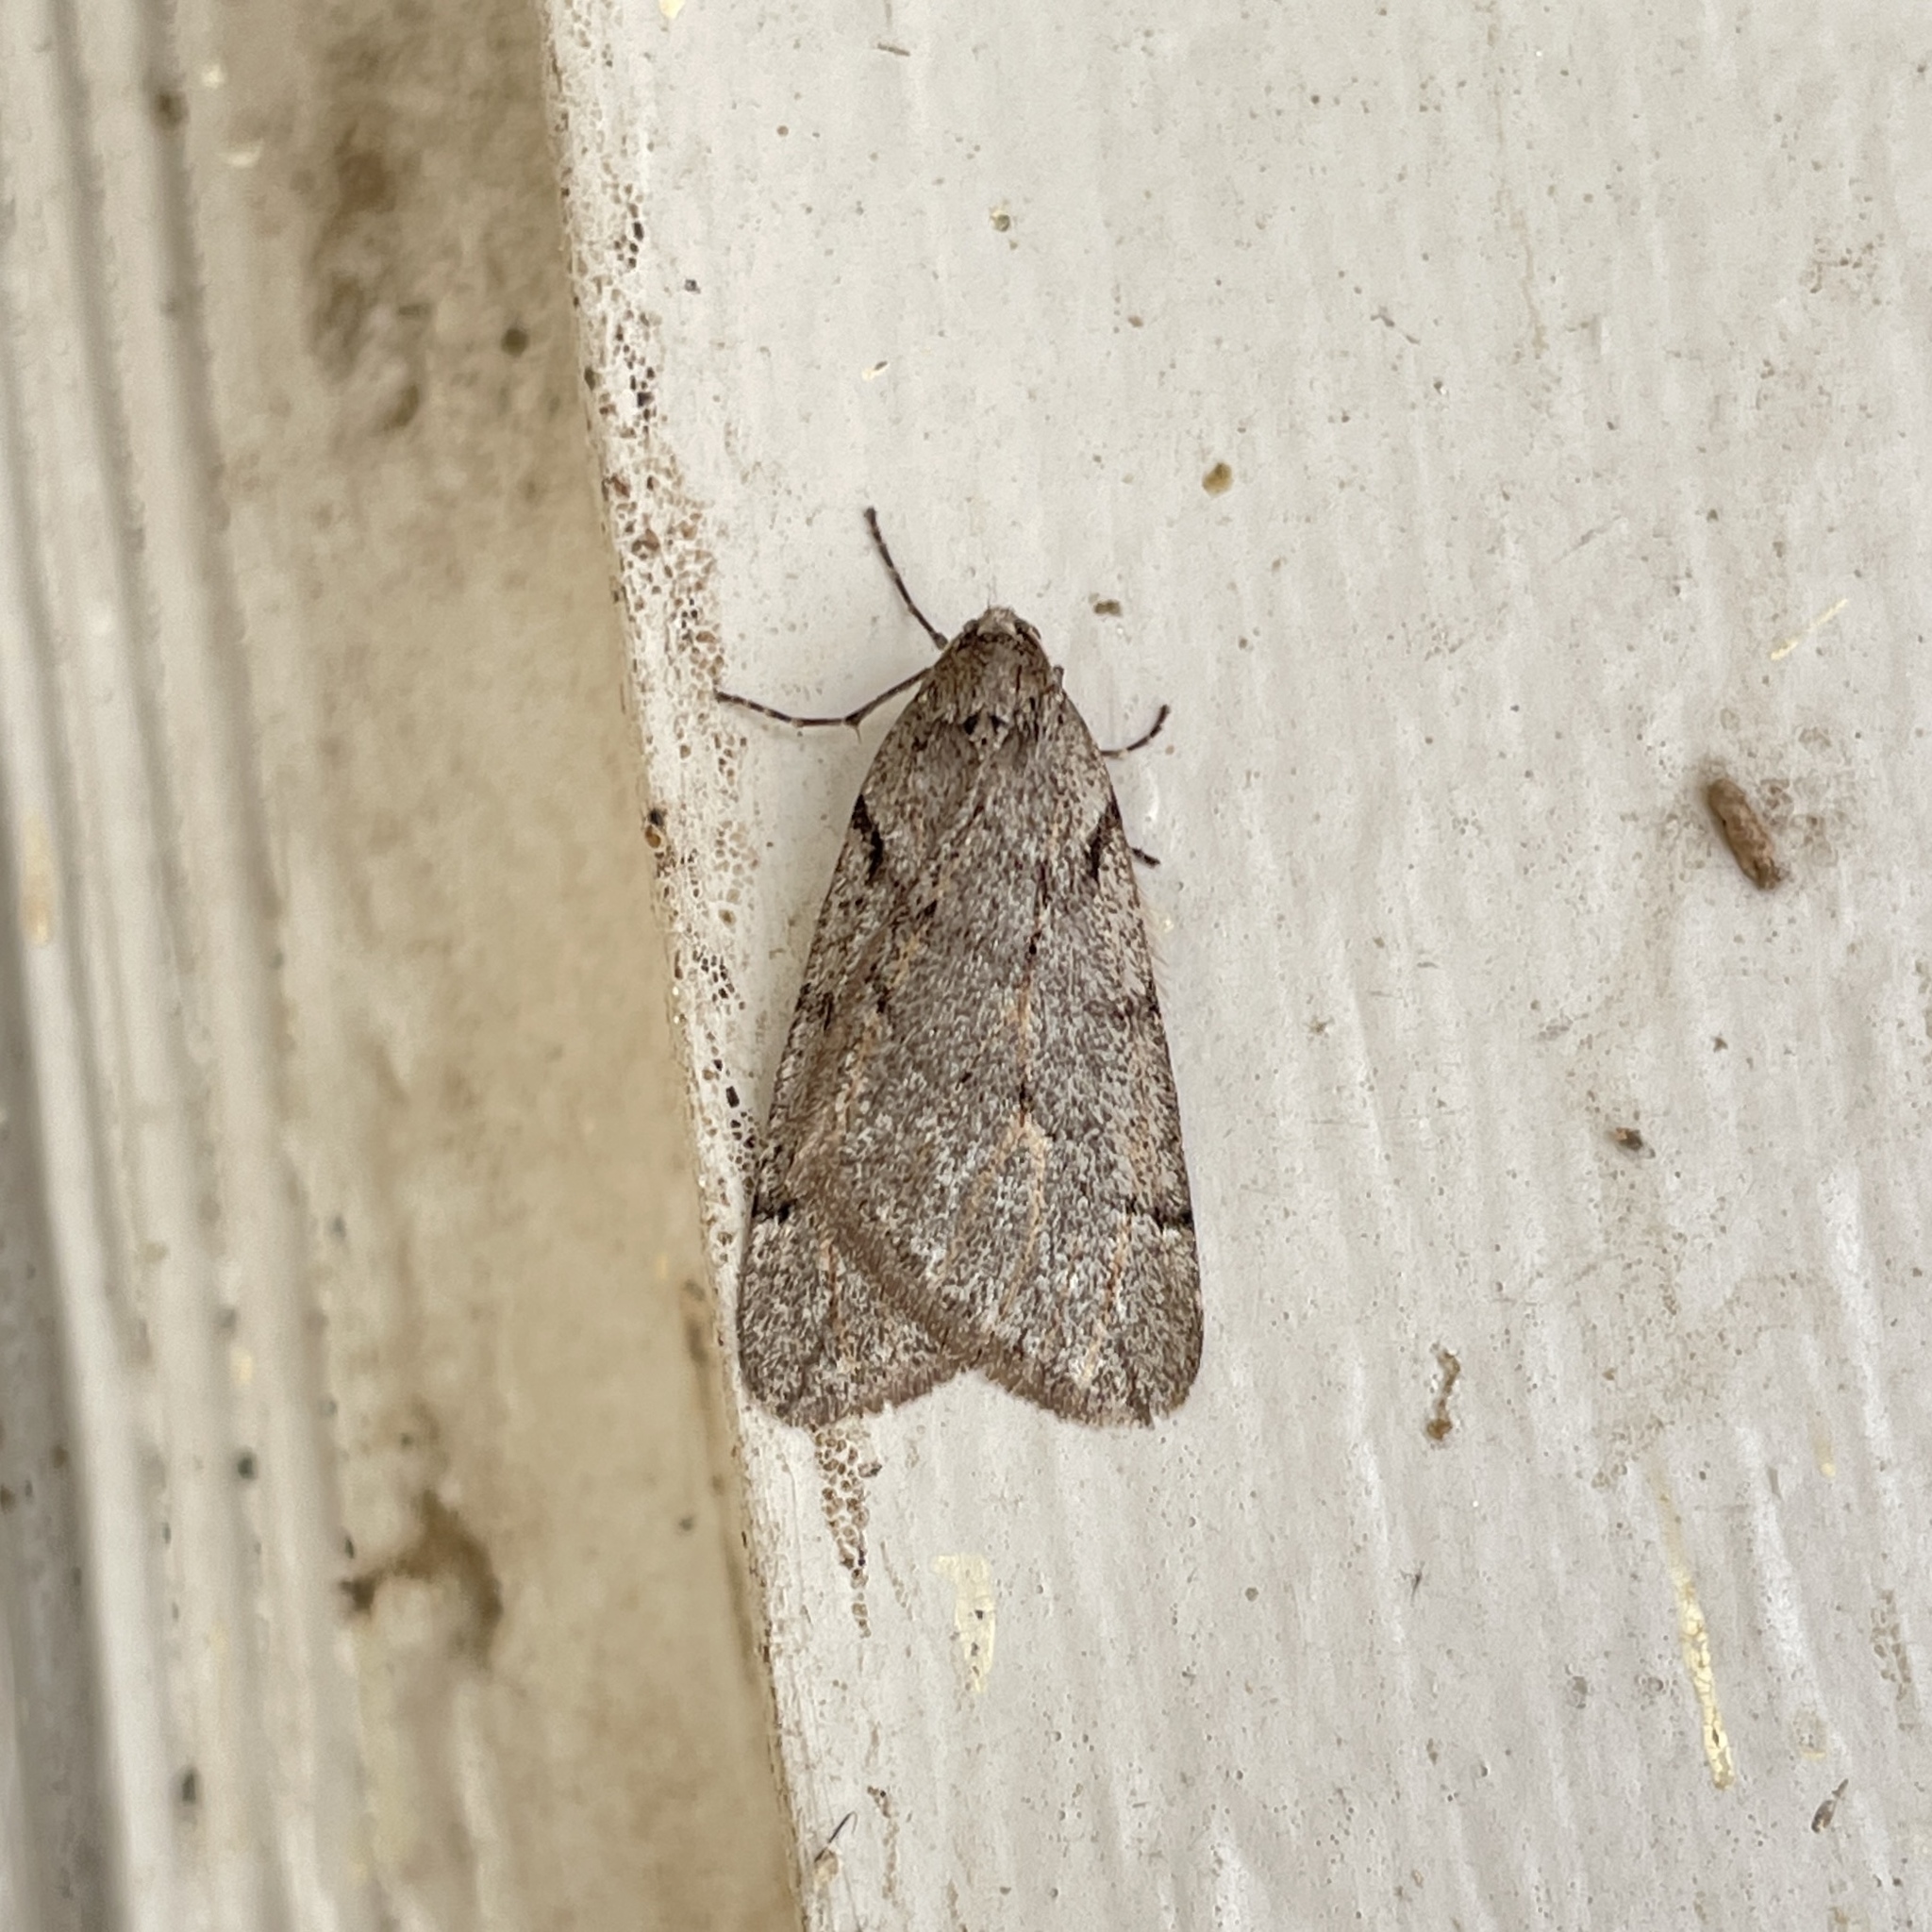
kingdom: Animalia
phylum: Arthropoda
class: Insecta
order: Lepidoptera
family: Geometridae
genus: Paleacrita
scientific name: Paleacrita vernata
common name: Spring cankerworm
